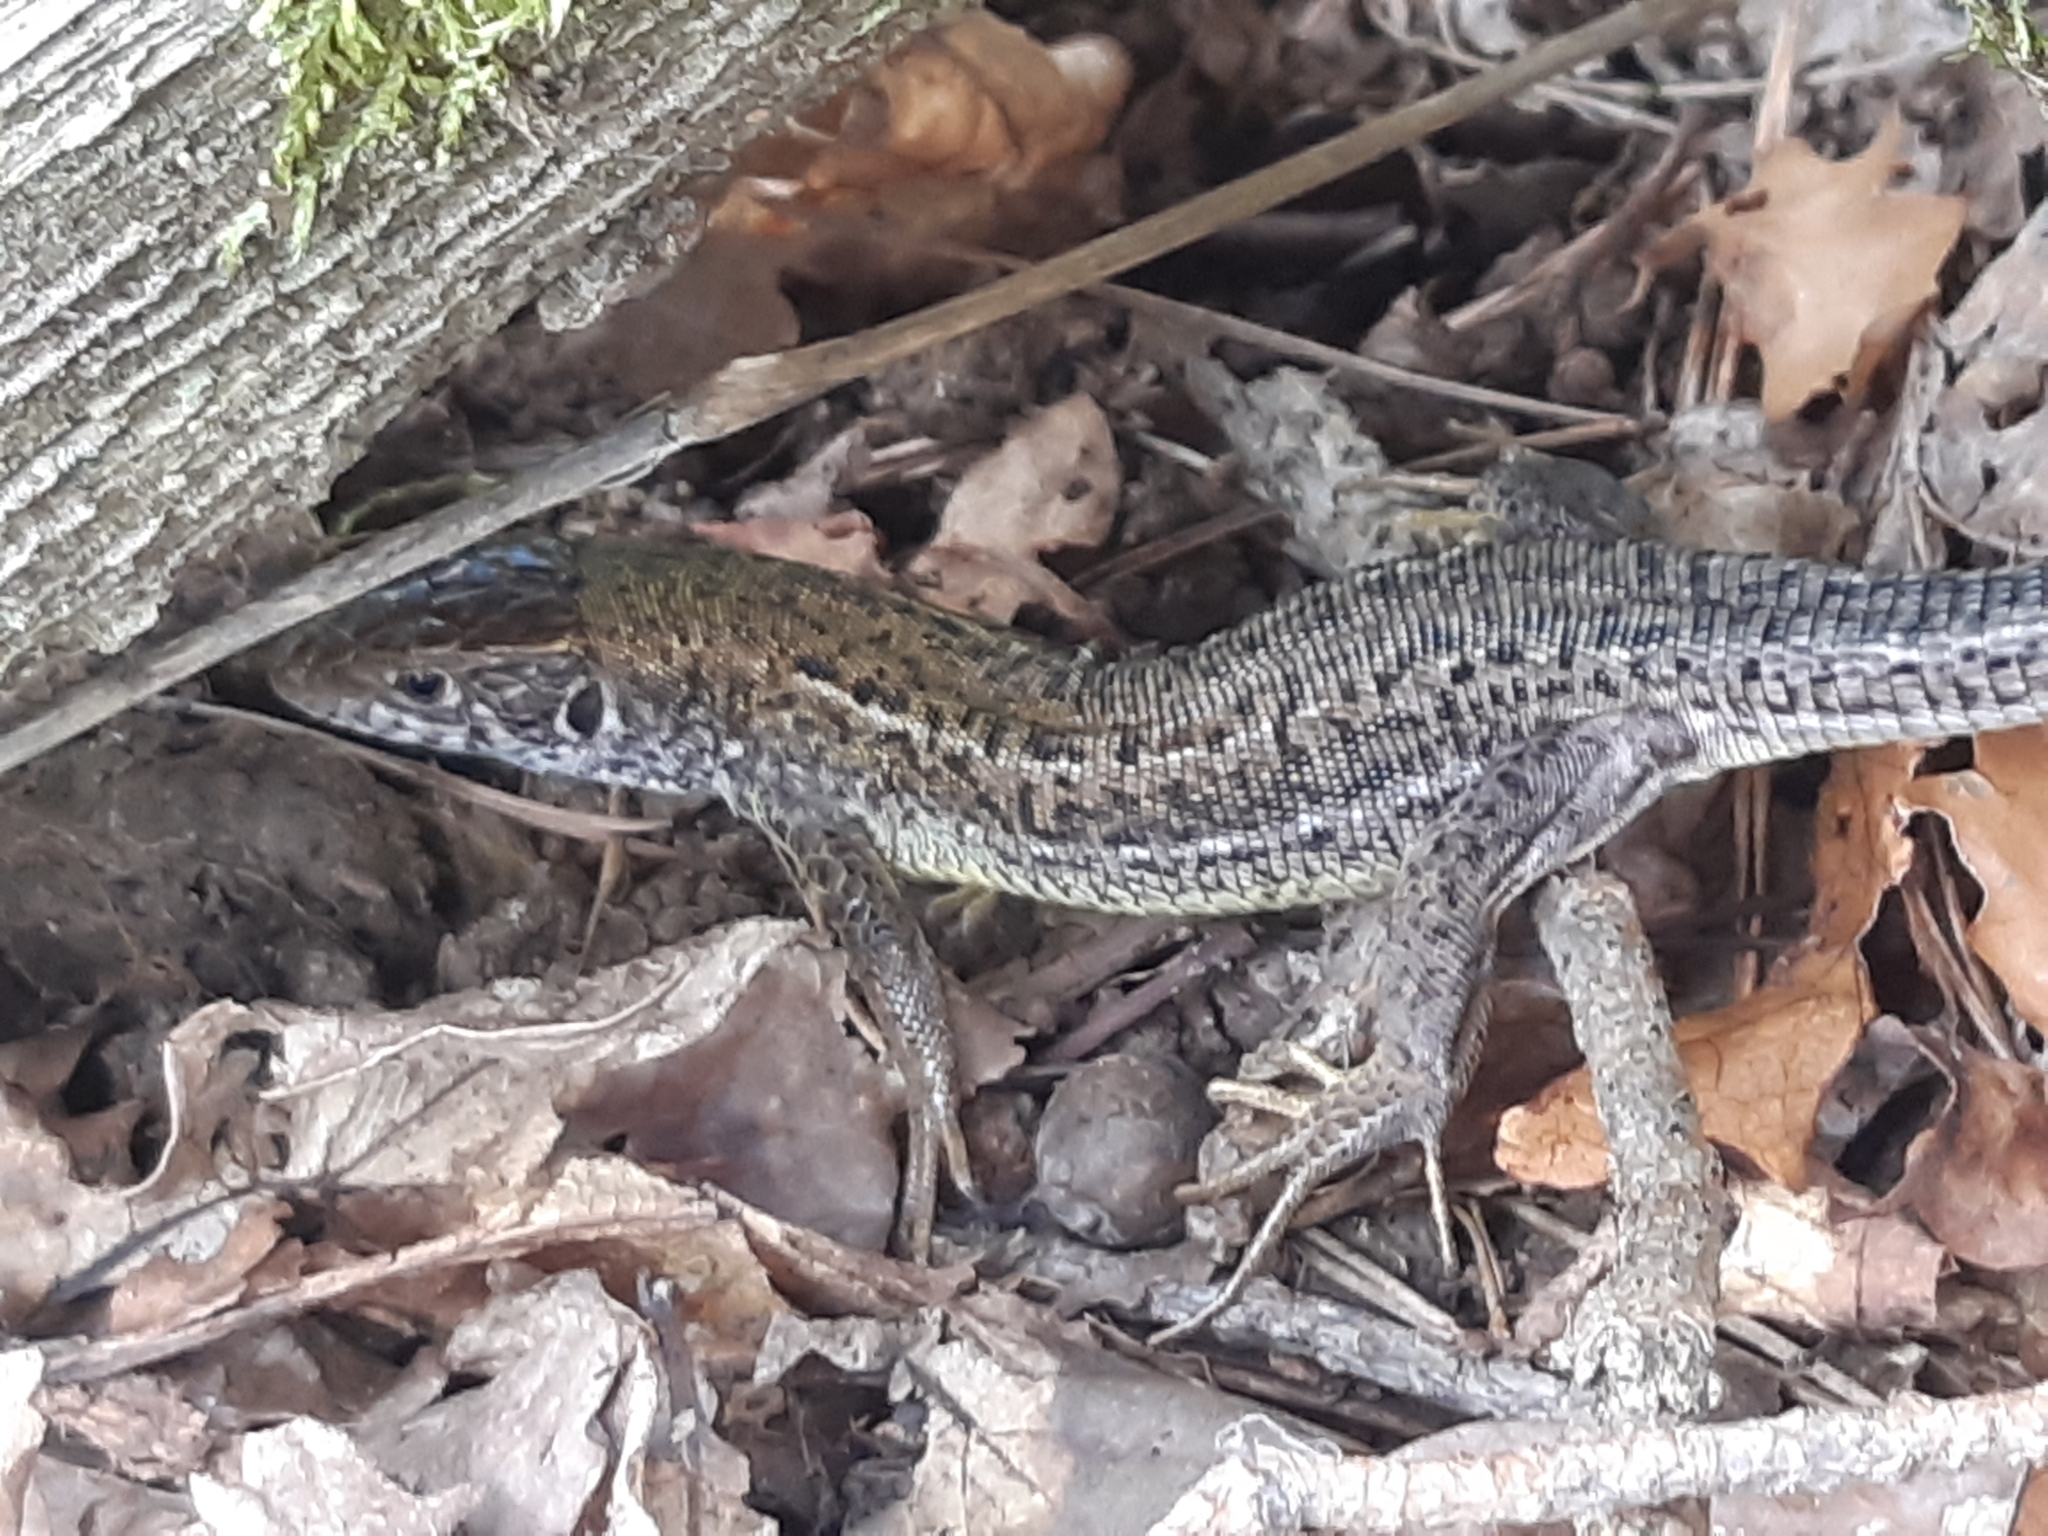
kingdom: Animalia
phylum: Chordata
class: Squamata
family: Lacertidae
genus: Lacerta
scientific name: Lacerta viridis
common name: European green lizard
